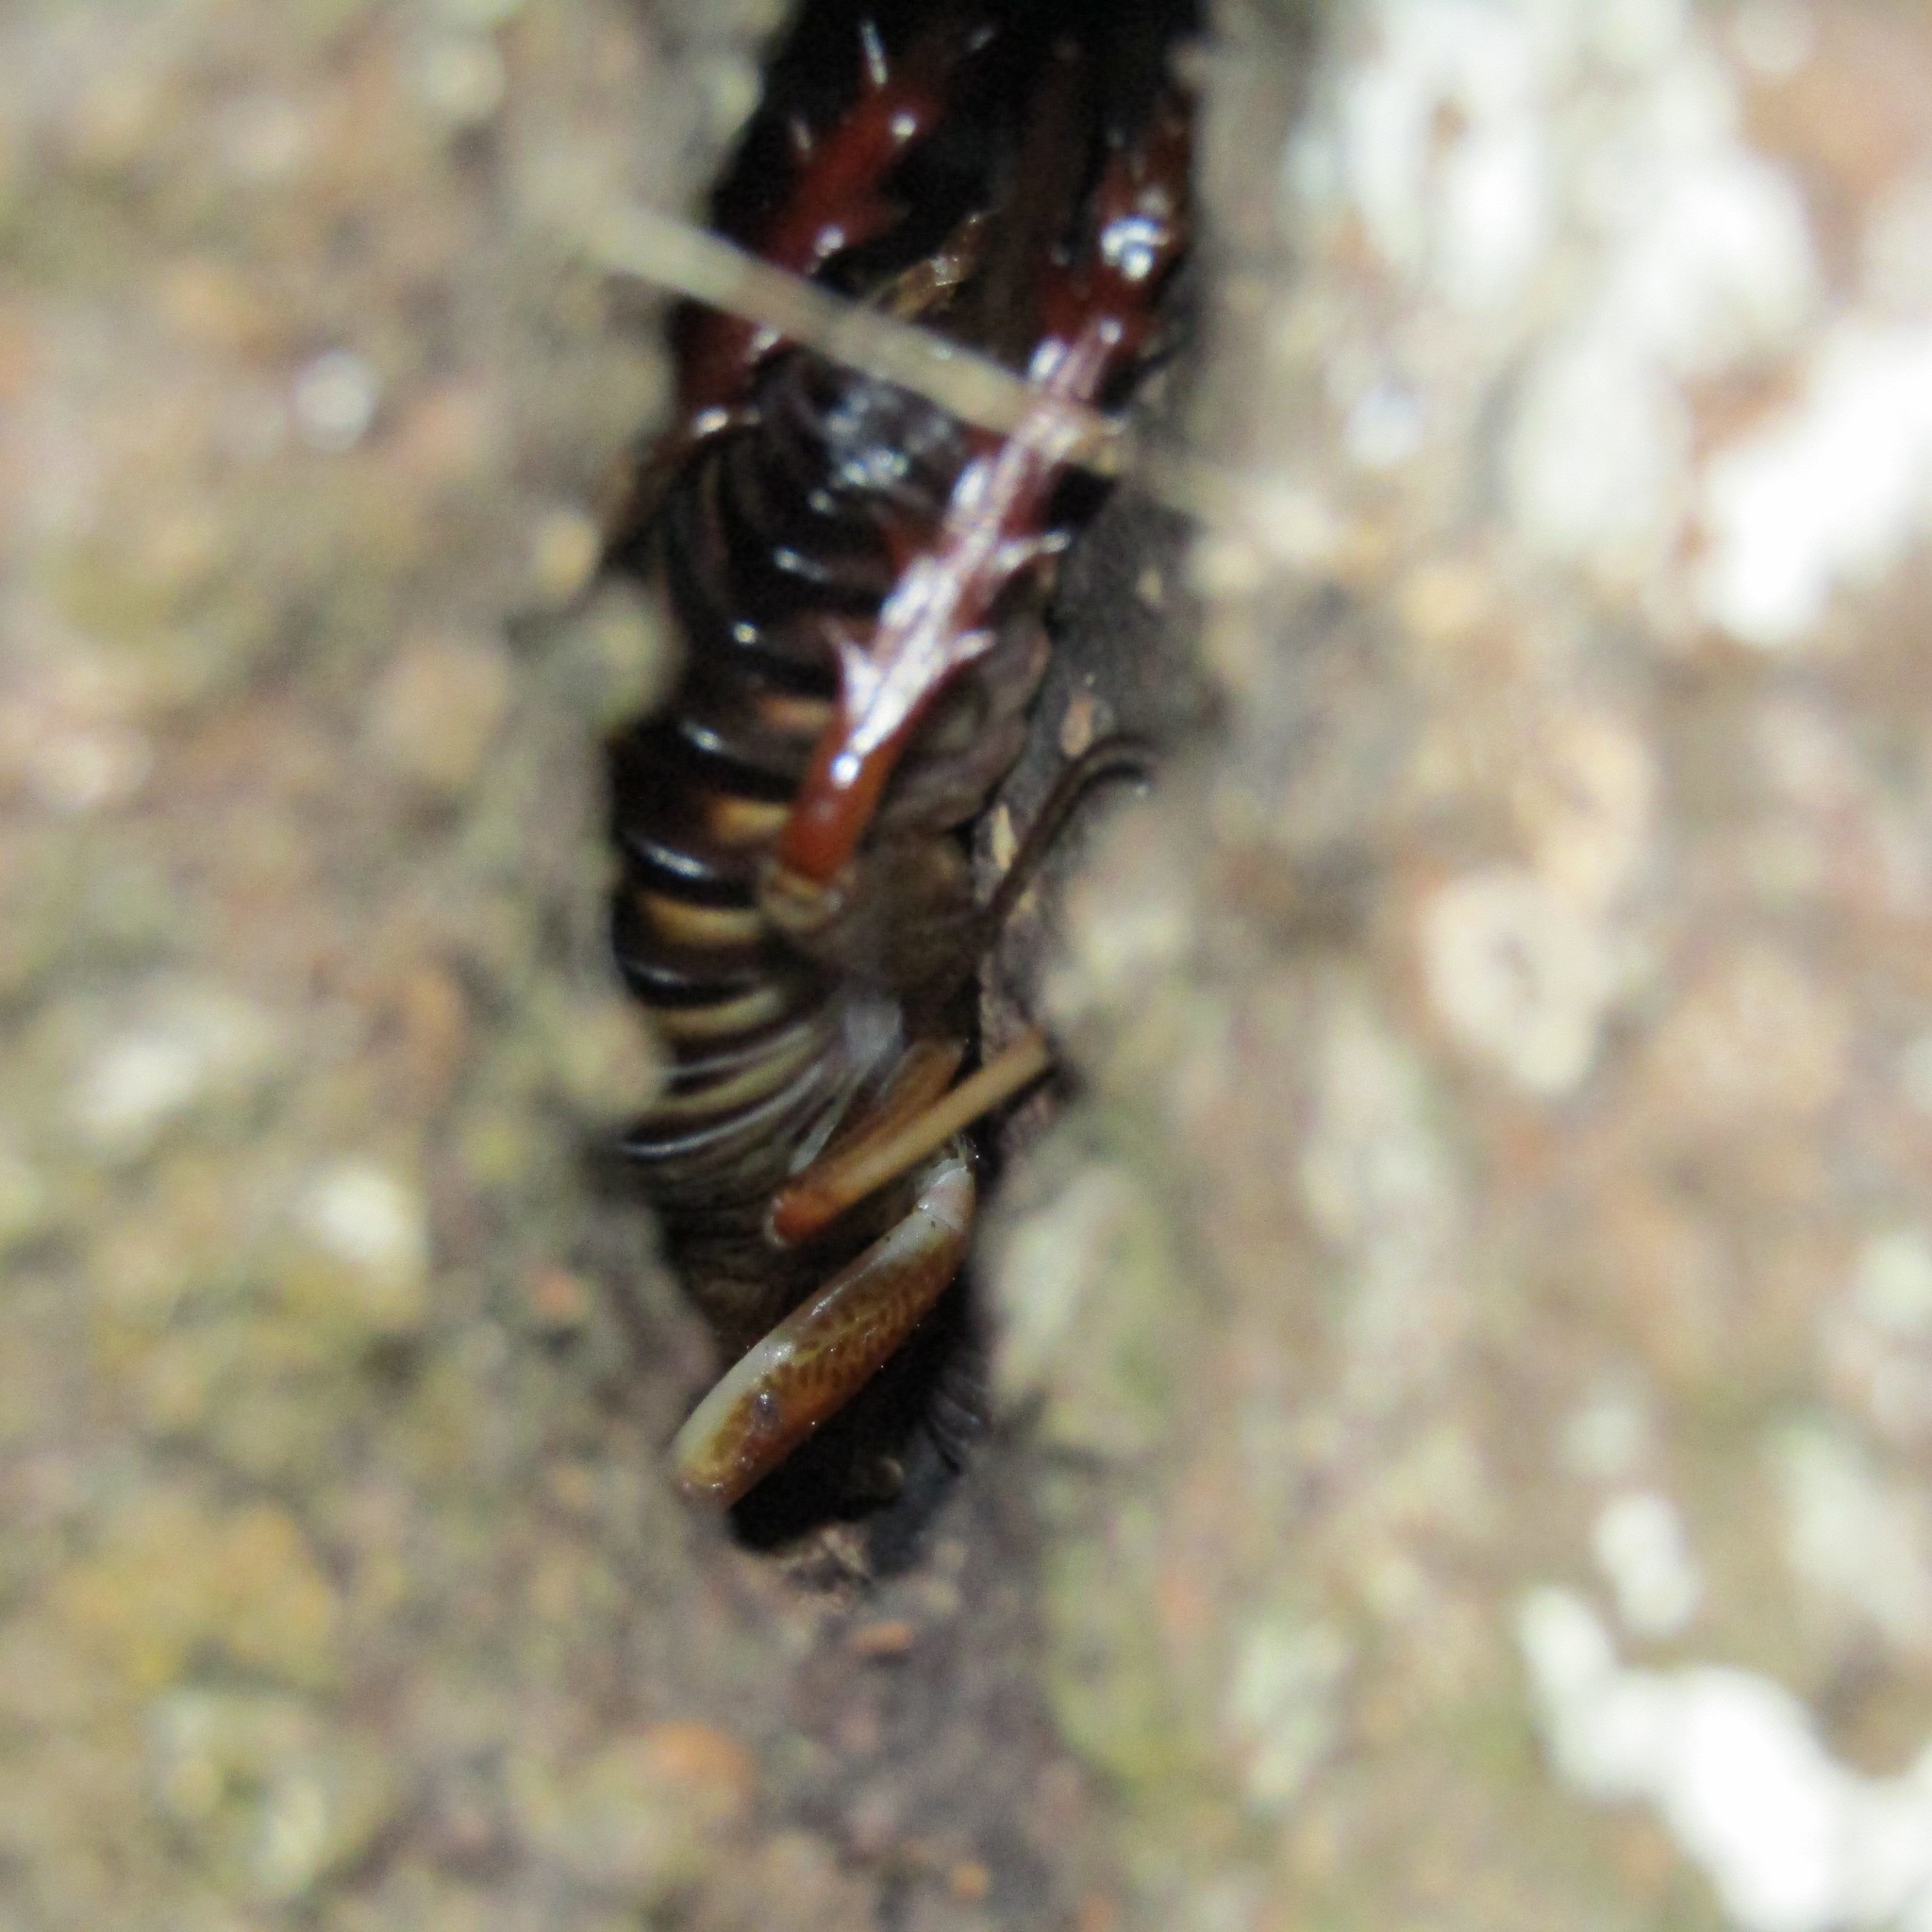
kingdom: Animalia
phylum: Arthropoda
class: Insecta
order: Orthoptera
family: Anostostomatidae
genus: Hemideina
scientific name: Hemideina crassidens
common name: Wellington tree weta
